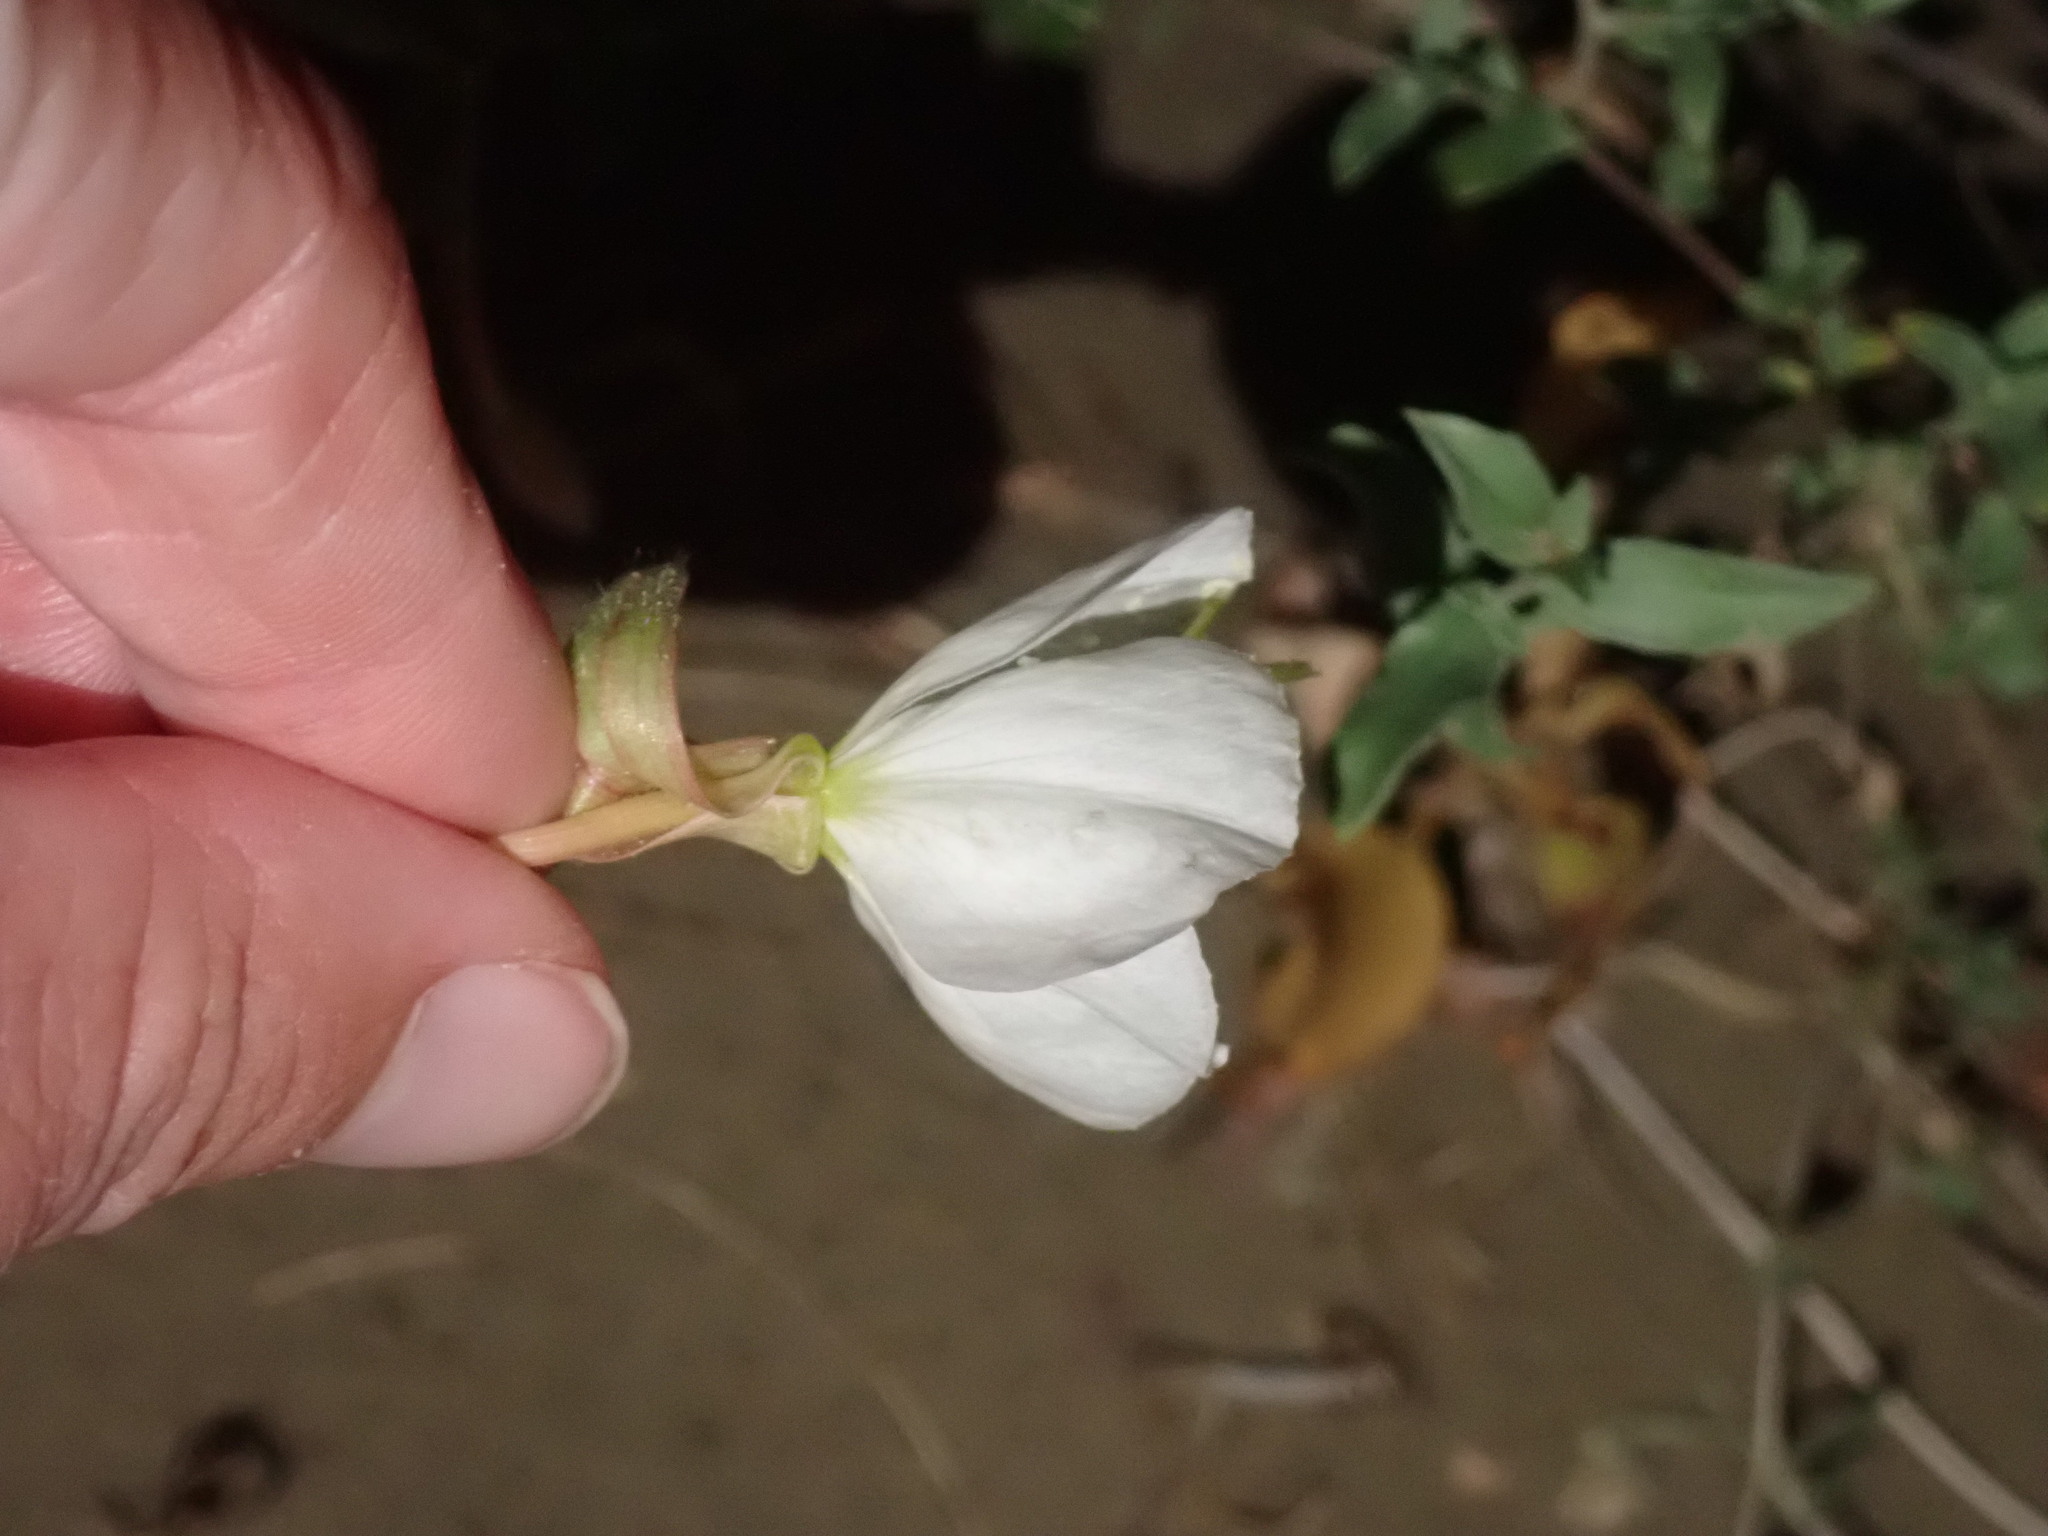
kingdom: Plantae
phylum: Tracheophyta
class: Magnoliopsida
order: Myrtales
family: Onagraceae
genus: Oenothera
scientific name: Oenothera nuttallii
